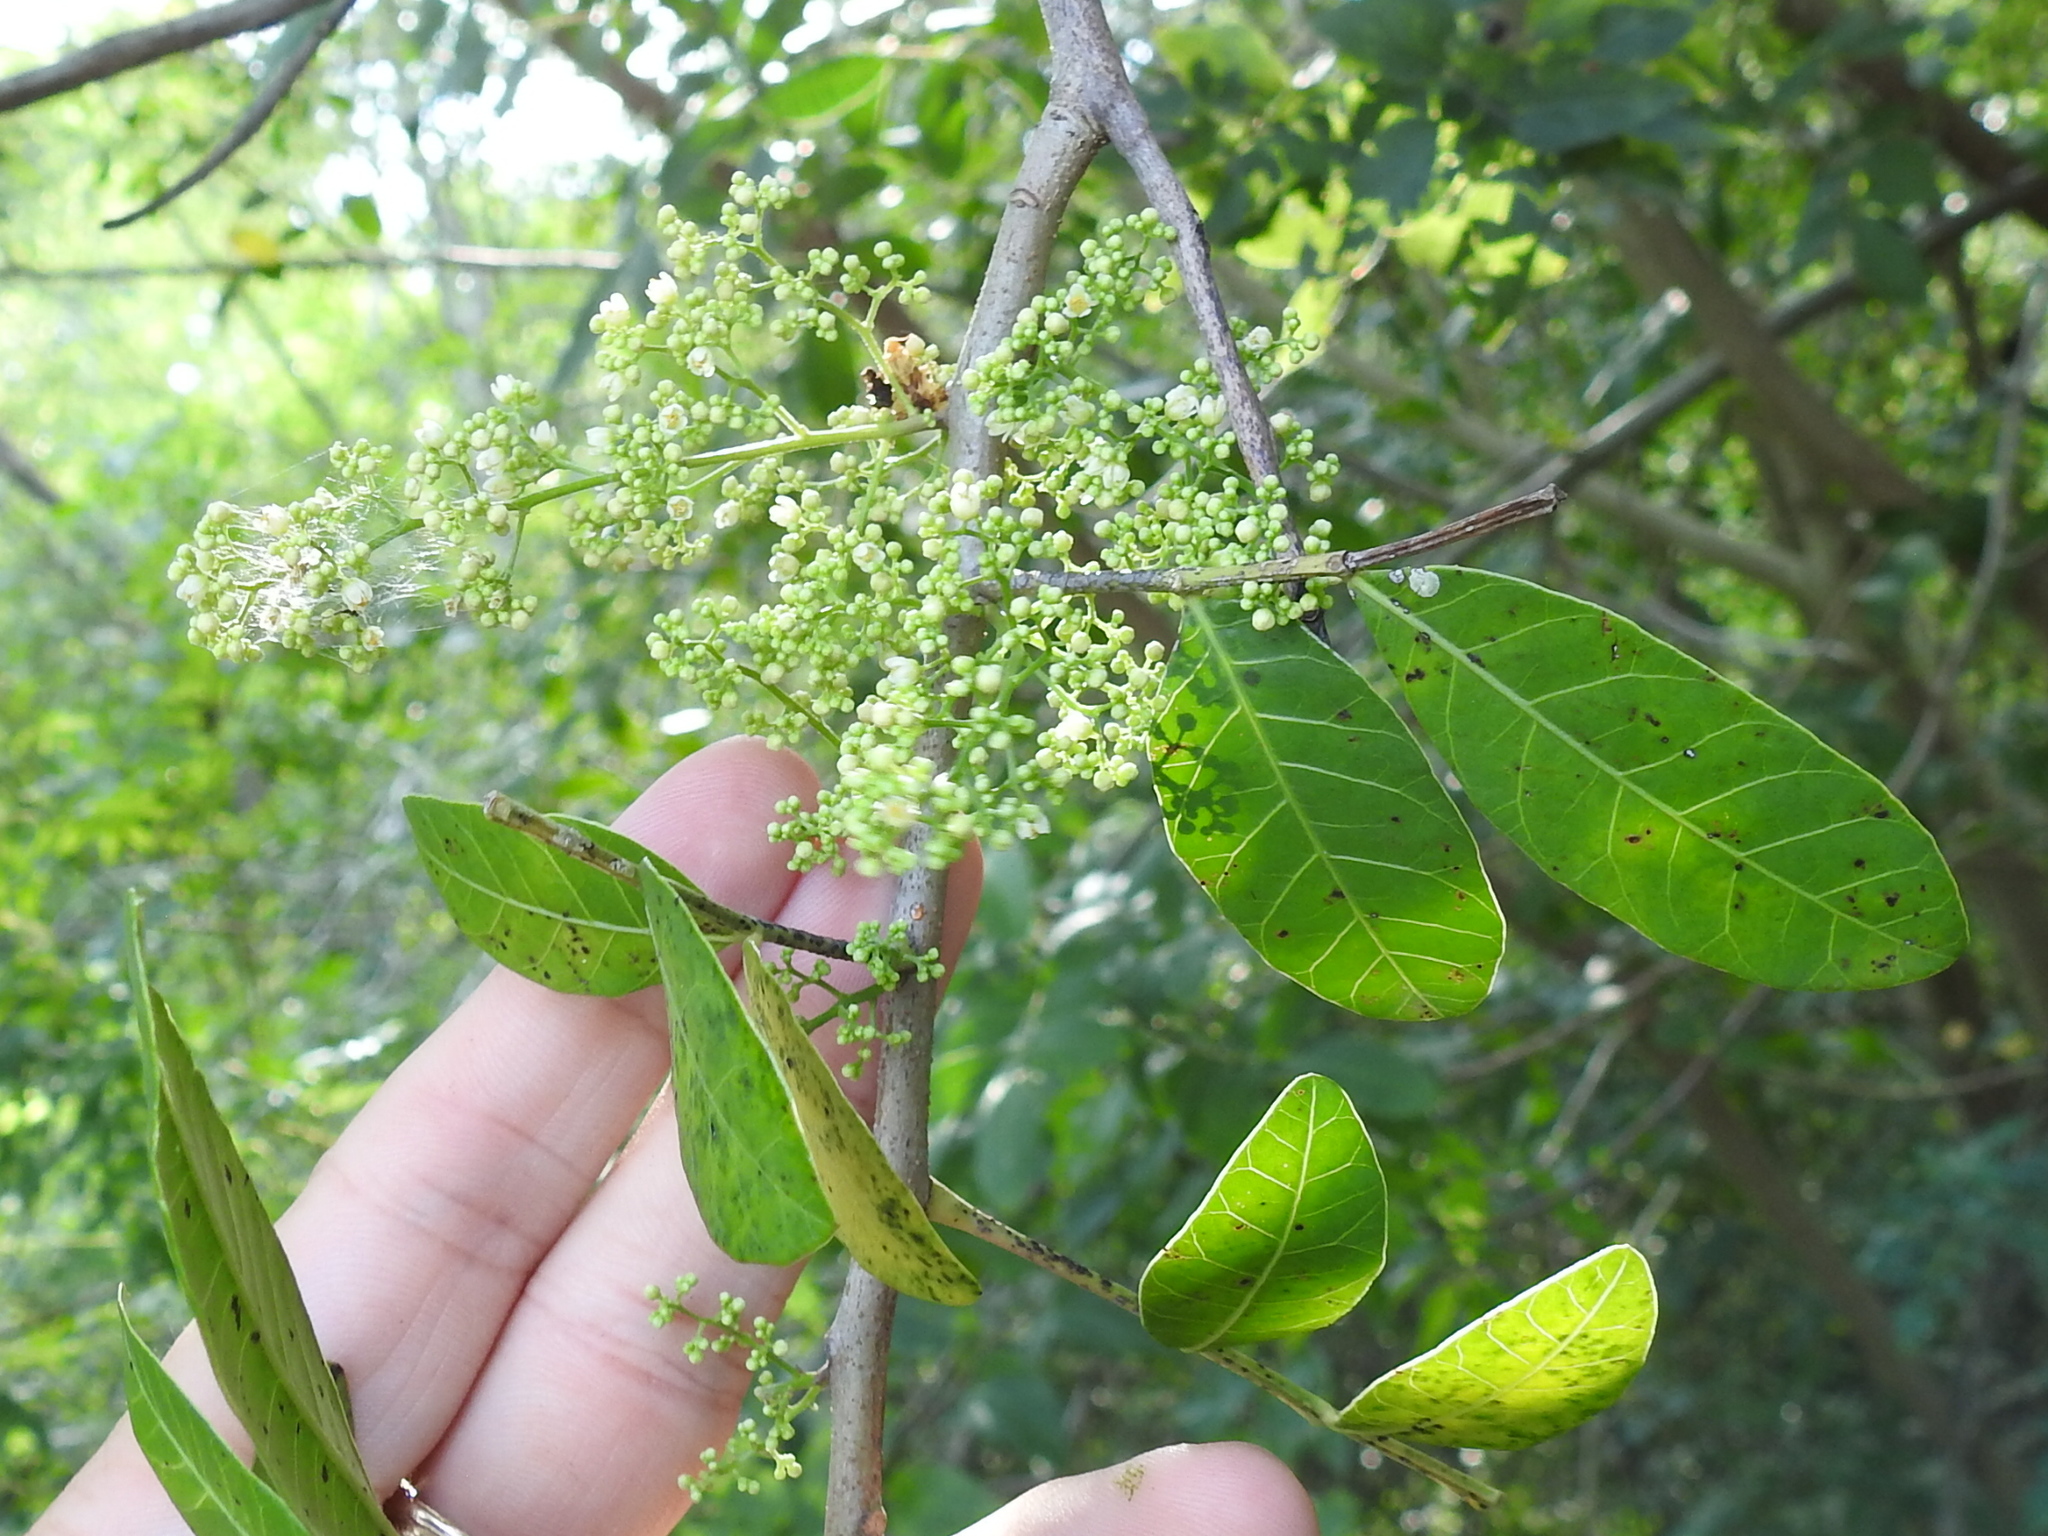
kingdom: Plantae
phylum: Tracheophyta
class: Magnoliopsida
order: Sapindales
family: Anacardiaceae
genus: Schinus
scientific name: Schinus terebinthifolia
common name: Brazilian peppertree
